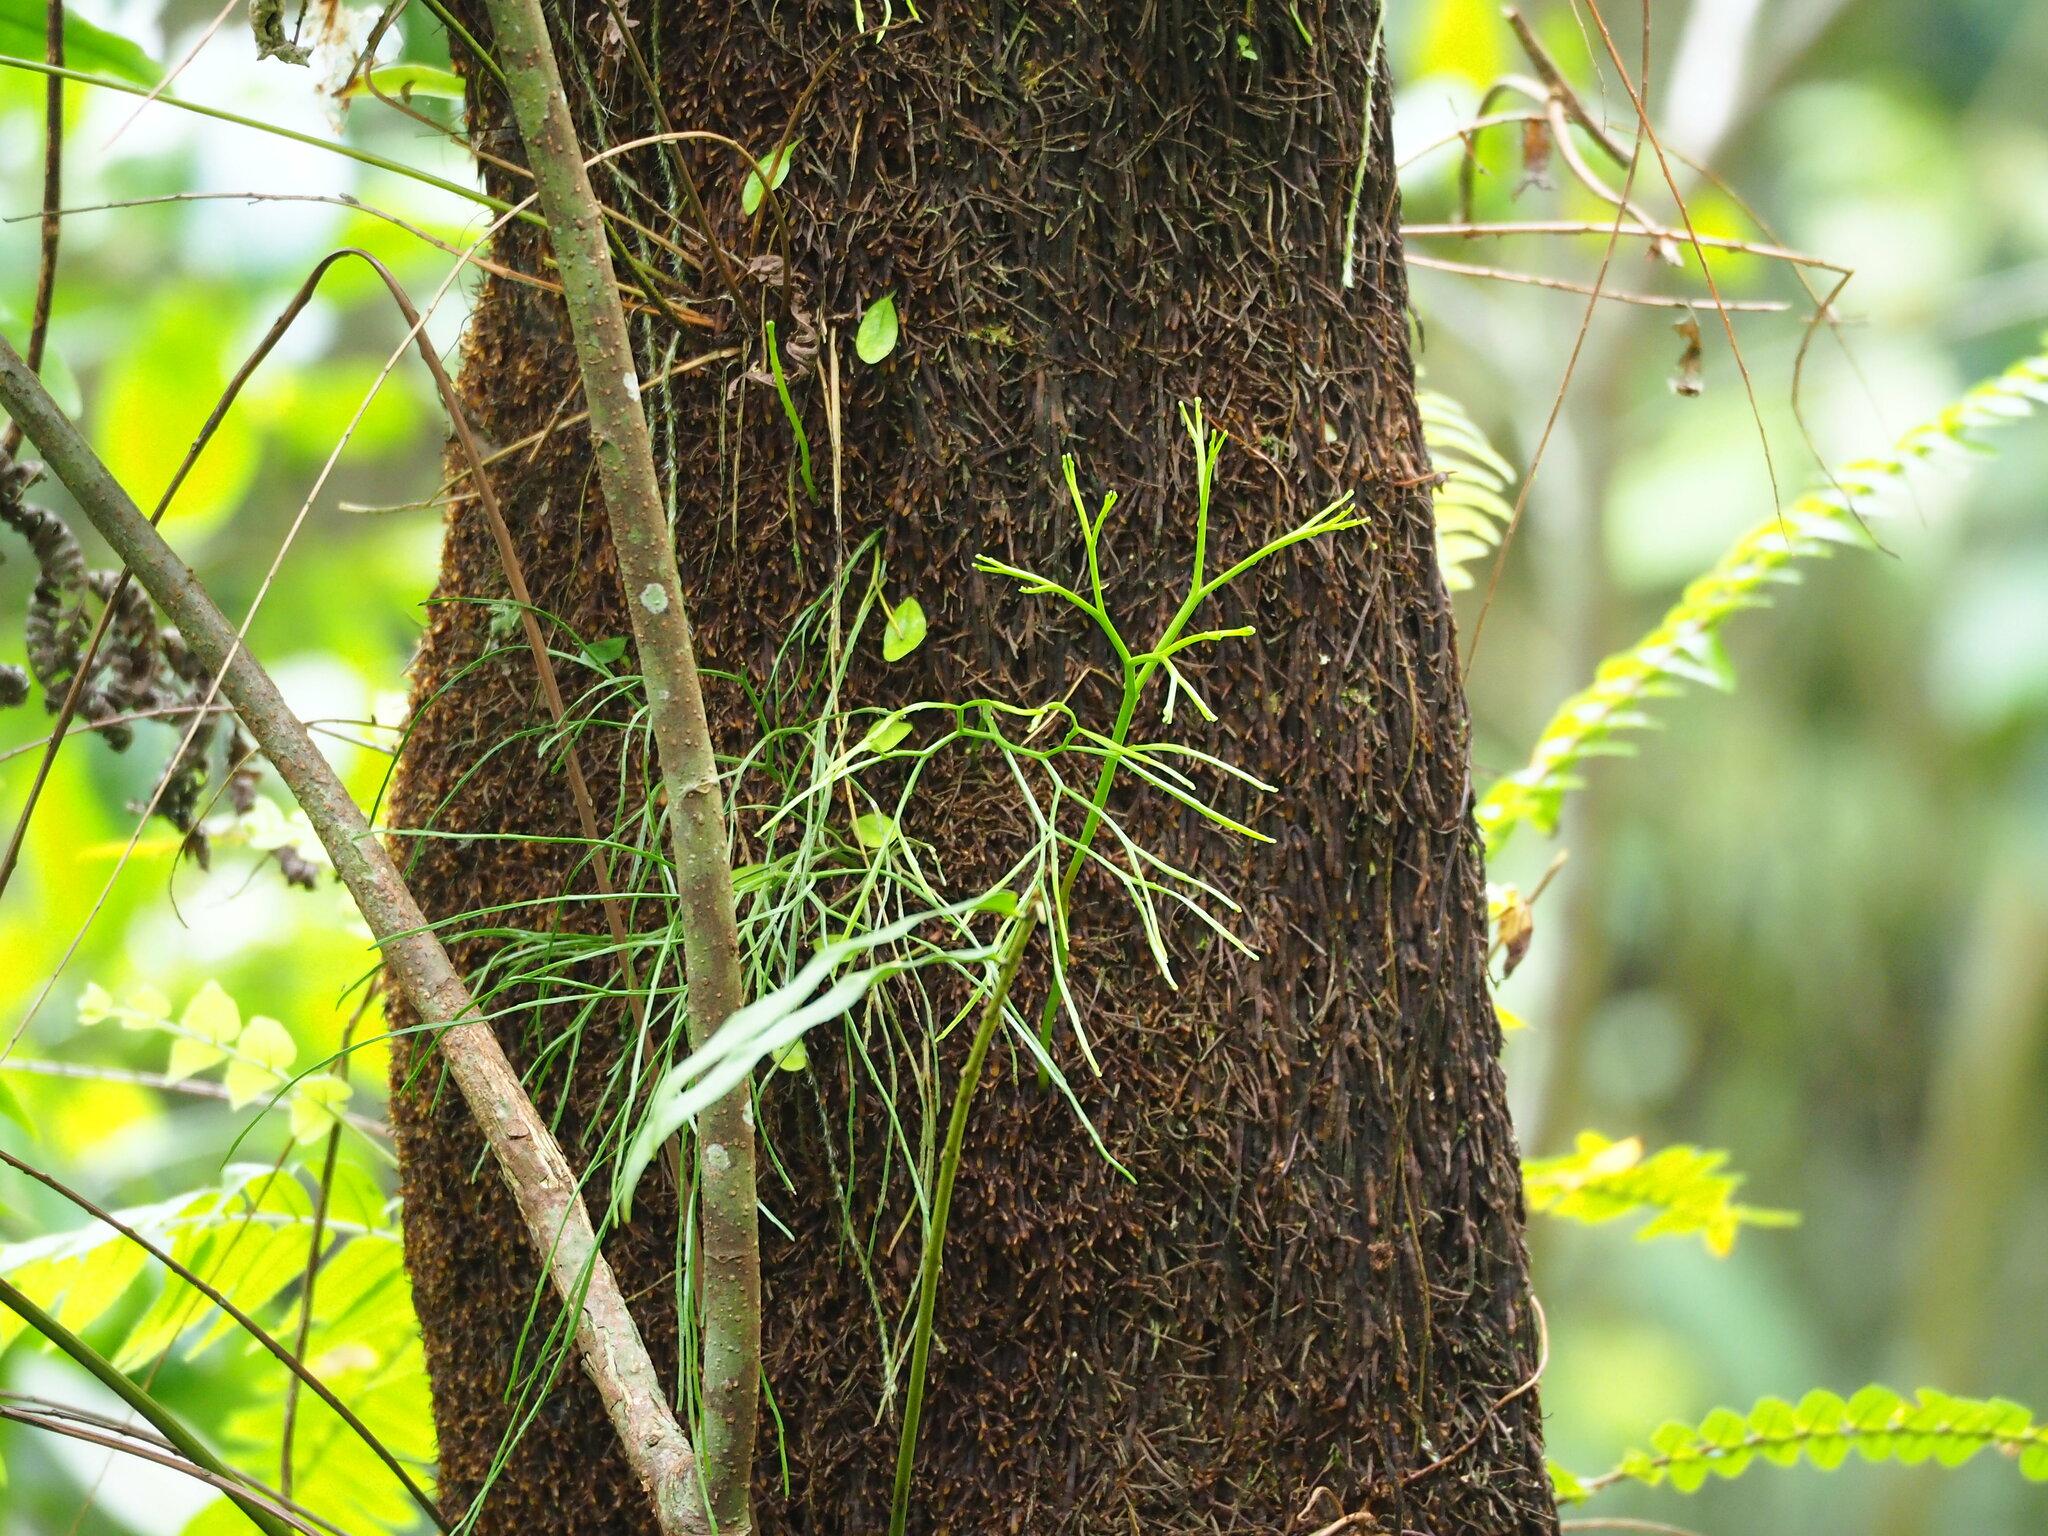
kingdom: Plantae
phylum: Tracheophyta
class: Polypodiopsida
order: Psilotales
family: Psilotaceae
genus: Psilotum
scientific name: Psilotum nudum
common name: Skeleton fork fern
